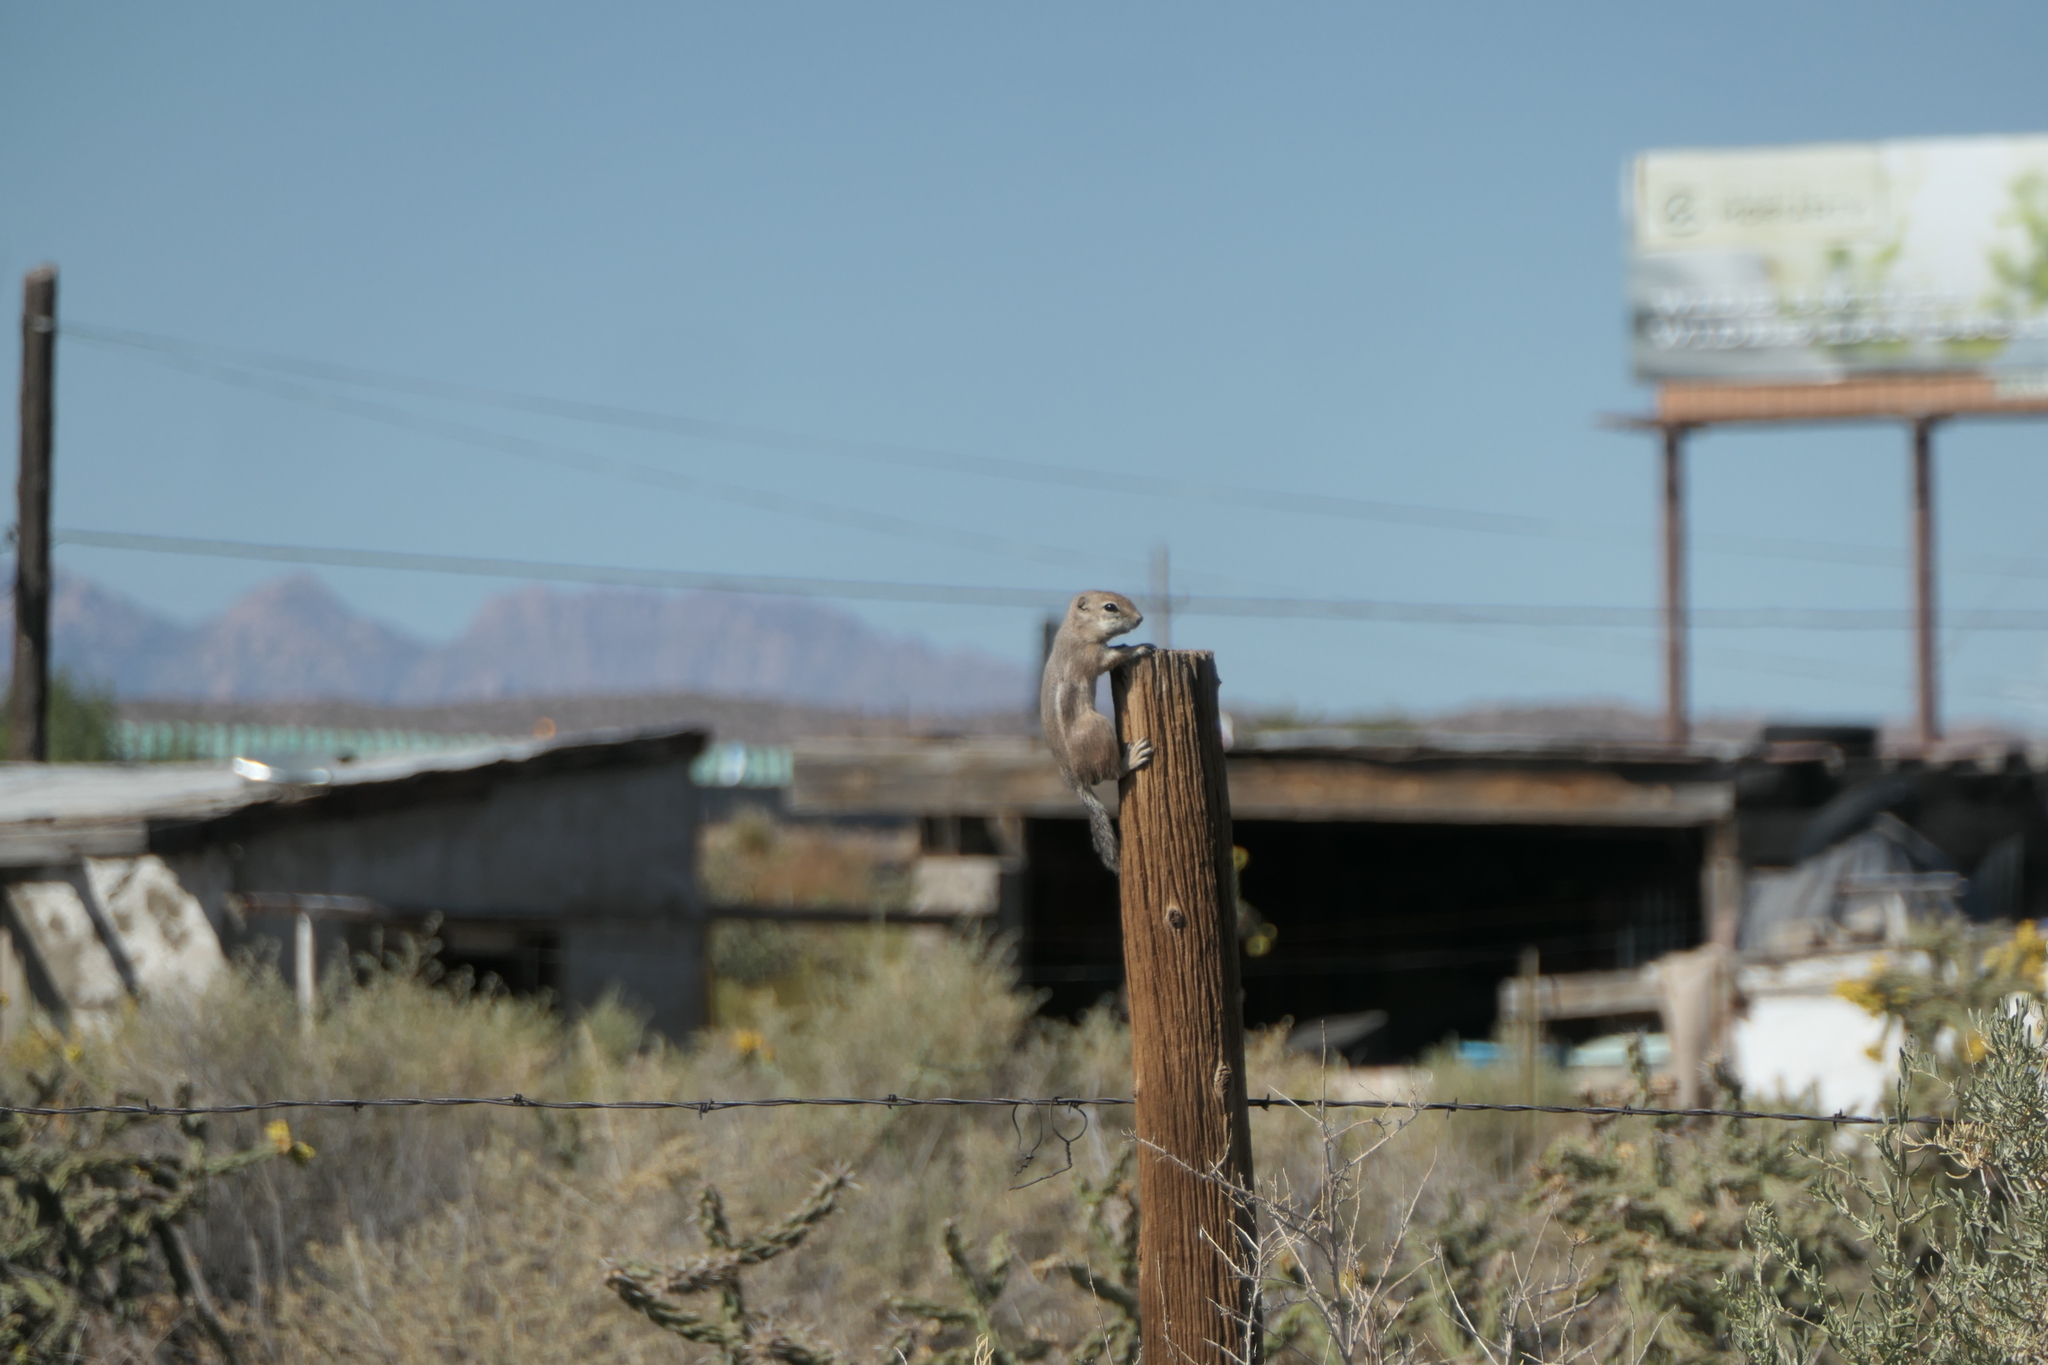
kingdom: Animalia
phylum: Chordata
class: Mammalia
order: Rodentia
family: Sciuridae
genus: Ammospermophilus
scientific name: Ammospermophilus leucurus
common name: White-tailed antelope squirrel
